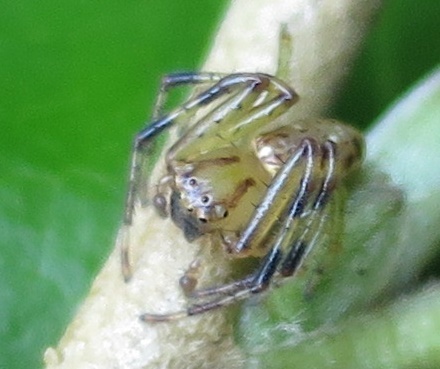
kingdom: Animalia
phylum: Arthropoda
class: Arachnida
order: Araneae
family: Thomisidae
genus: Diaea
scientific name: Diaea ambara
